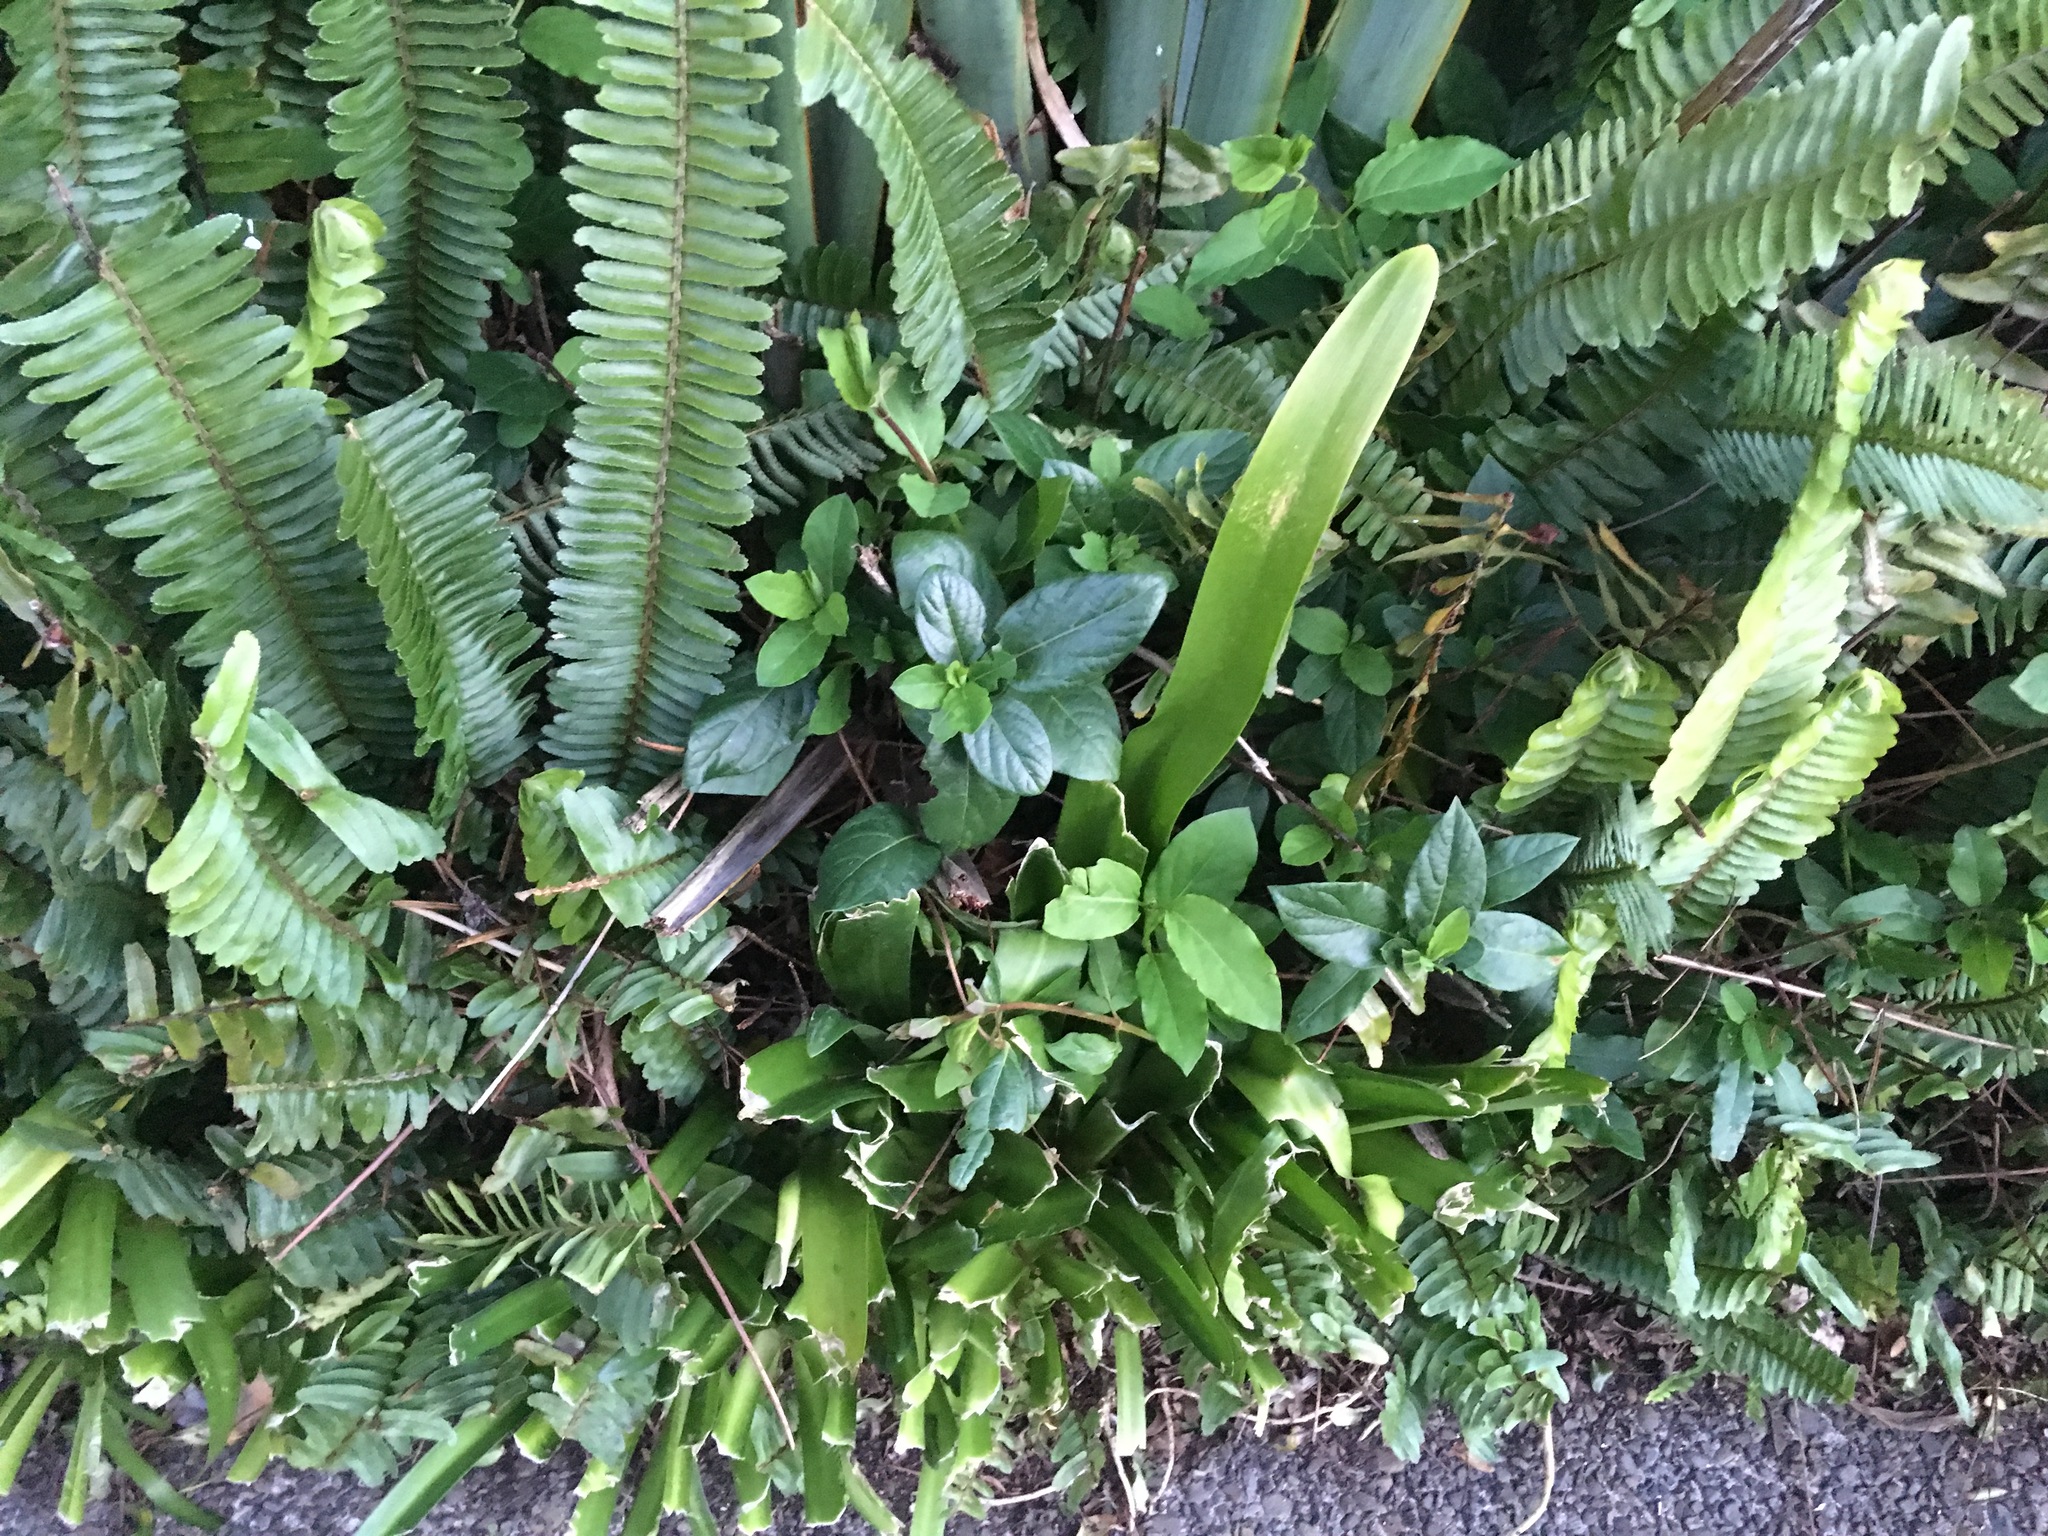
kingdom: Plantae
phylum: Tracheophyta
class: Magnoliopsida
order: Dipsacales
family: Caprifoliaceae
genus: Lonicera
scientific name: Lonicera japonica
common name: Japanese honeysuckle
